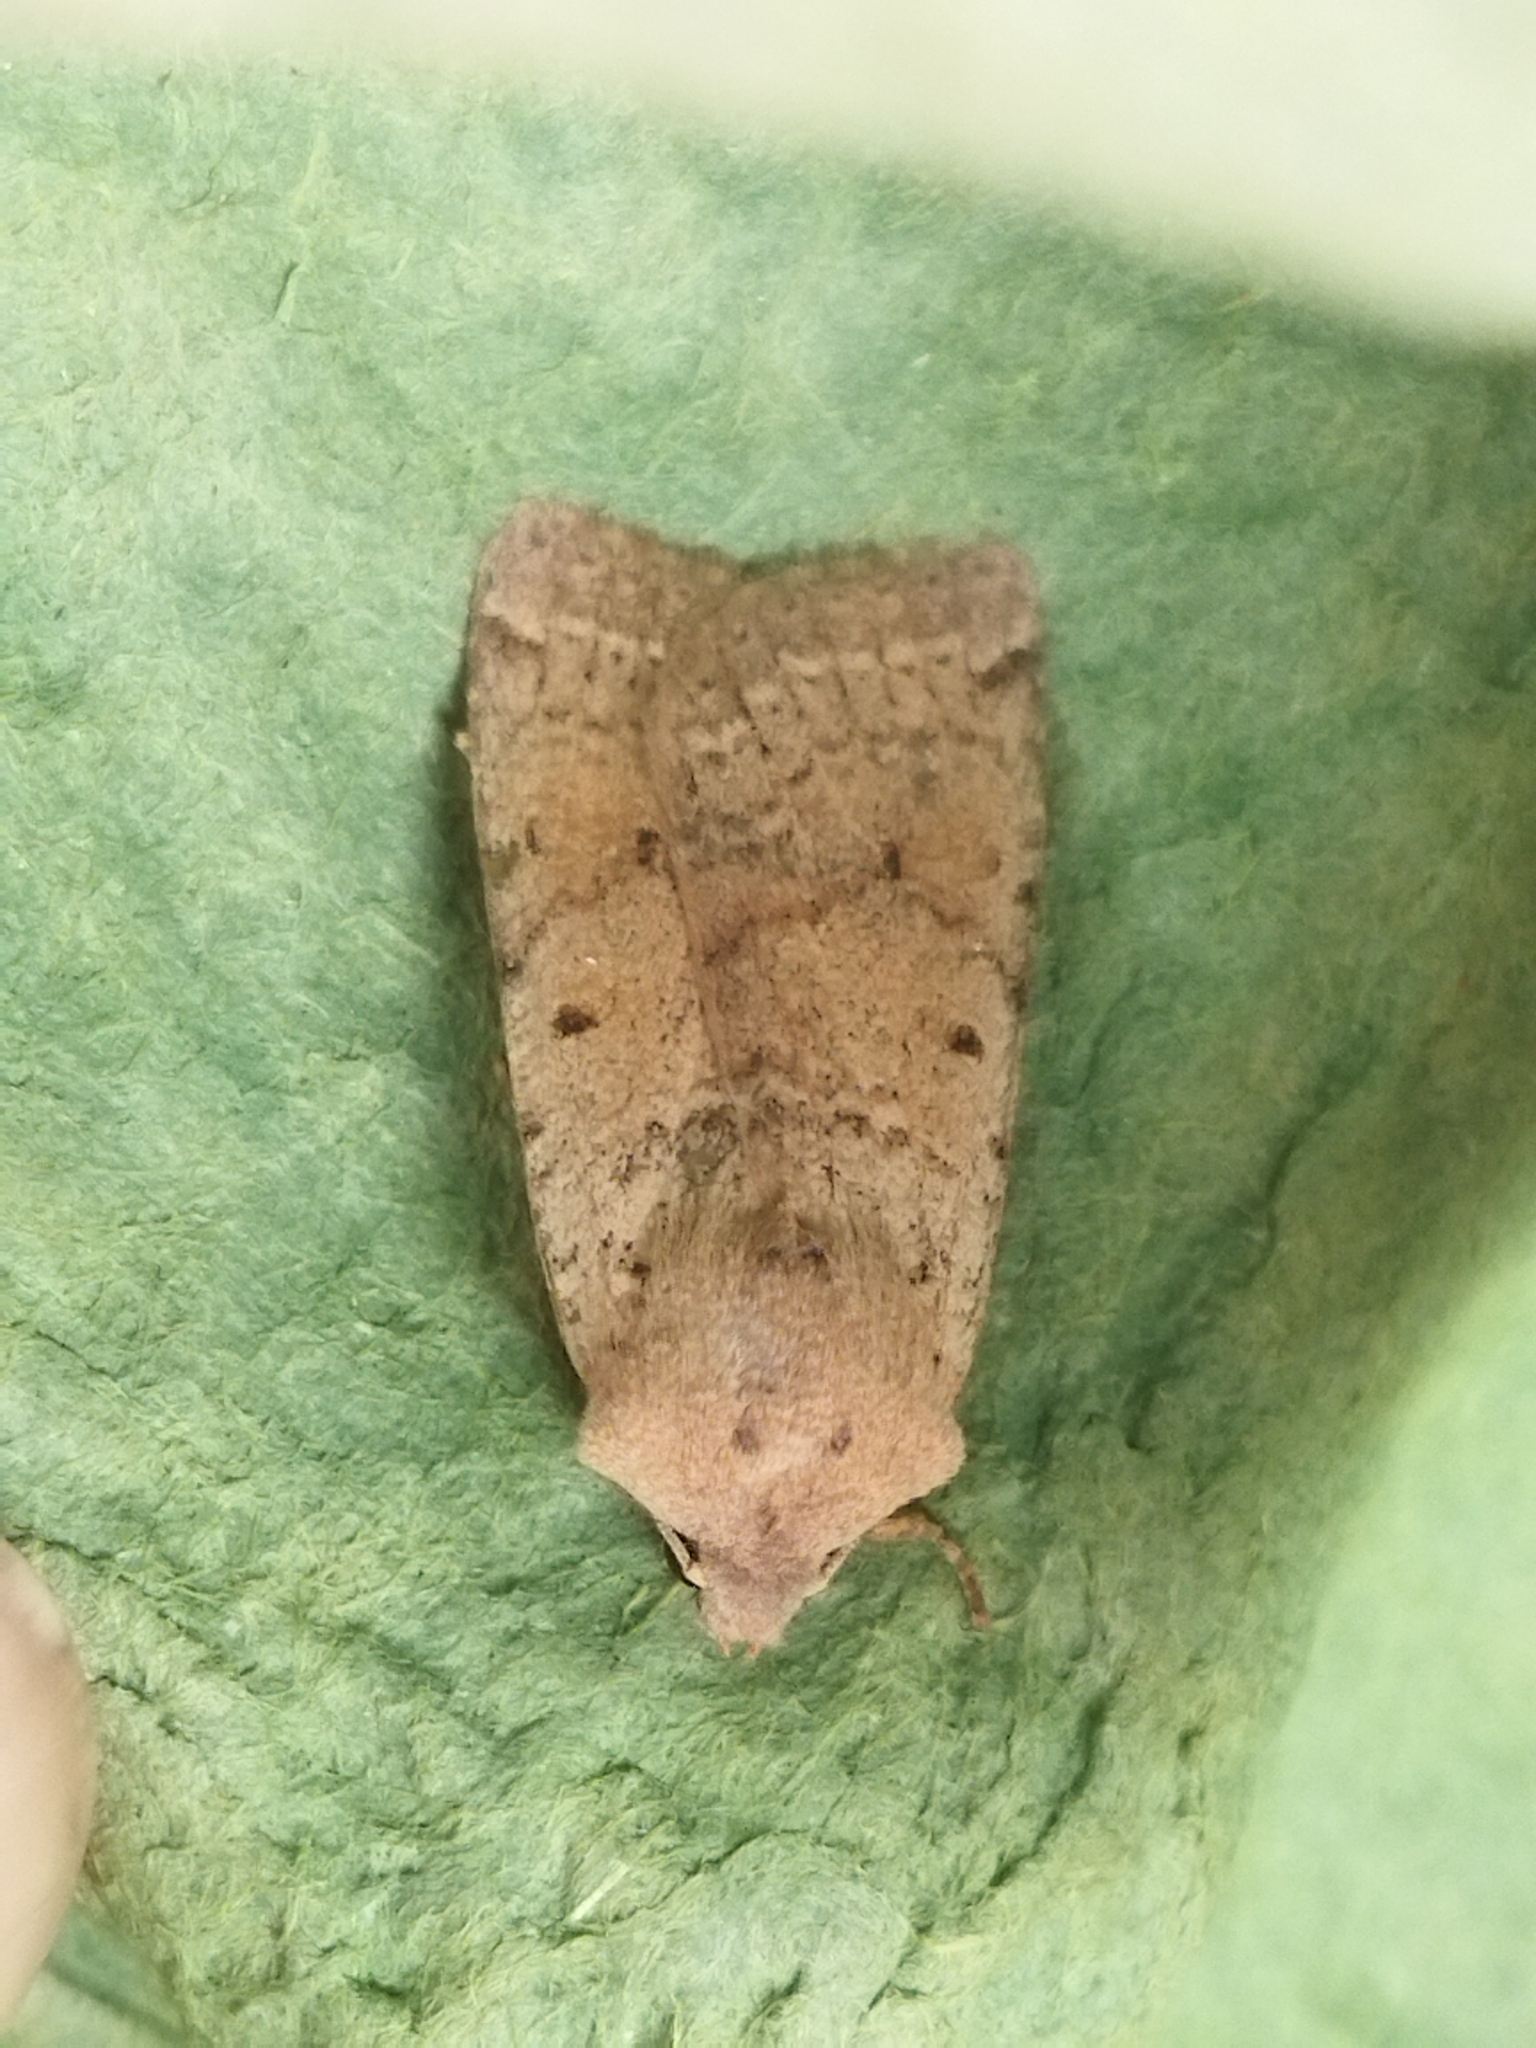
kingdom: Animalia
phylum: Arthropoda
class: Insecta
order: Lepidoptera
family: Noctuidae
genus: Agrochola
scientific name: Agrochola lychnidis
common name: Beaded chestnut
